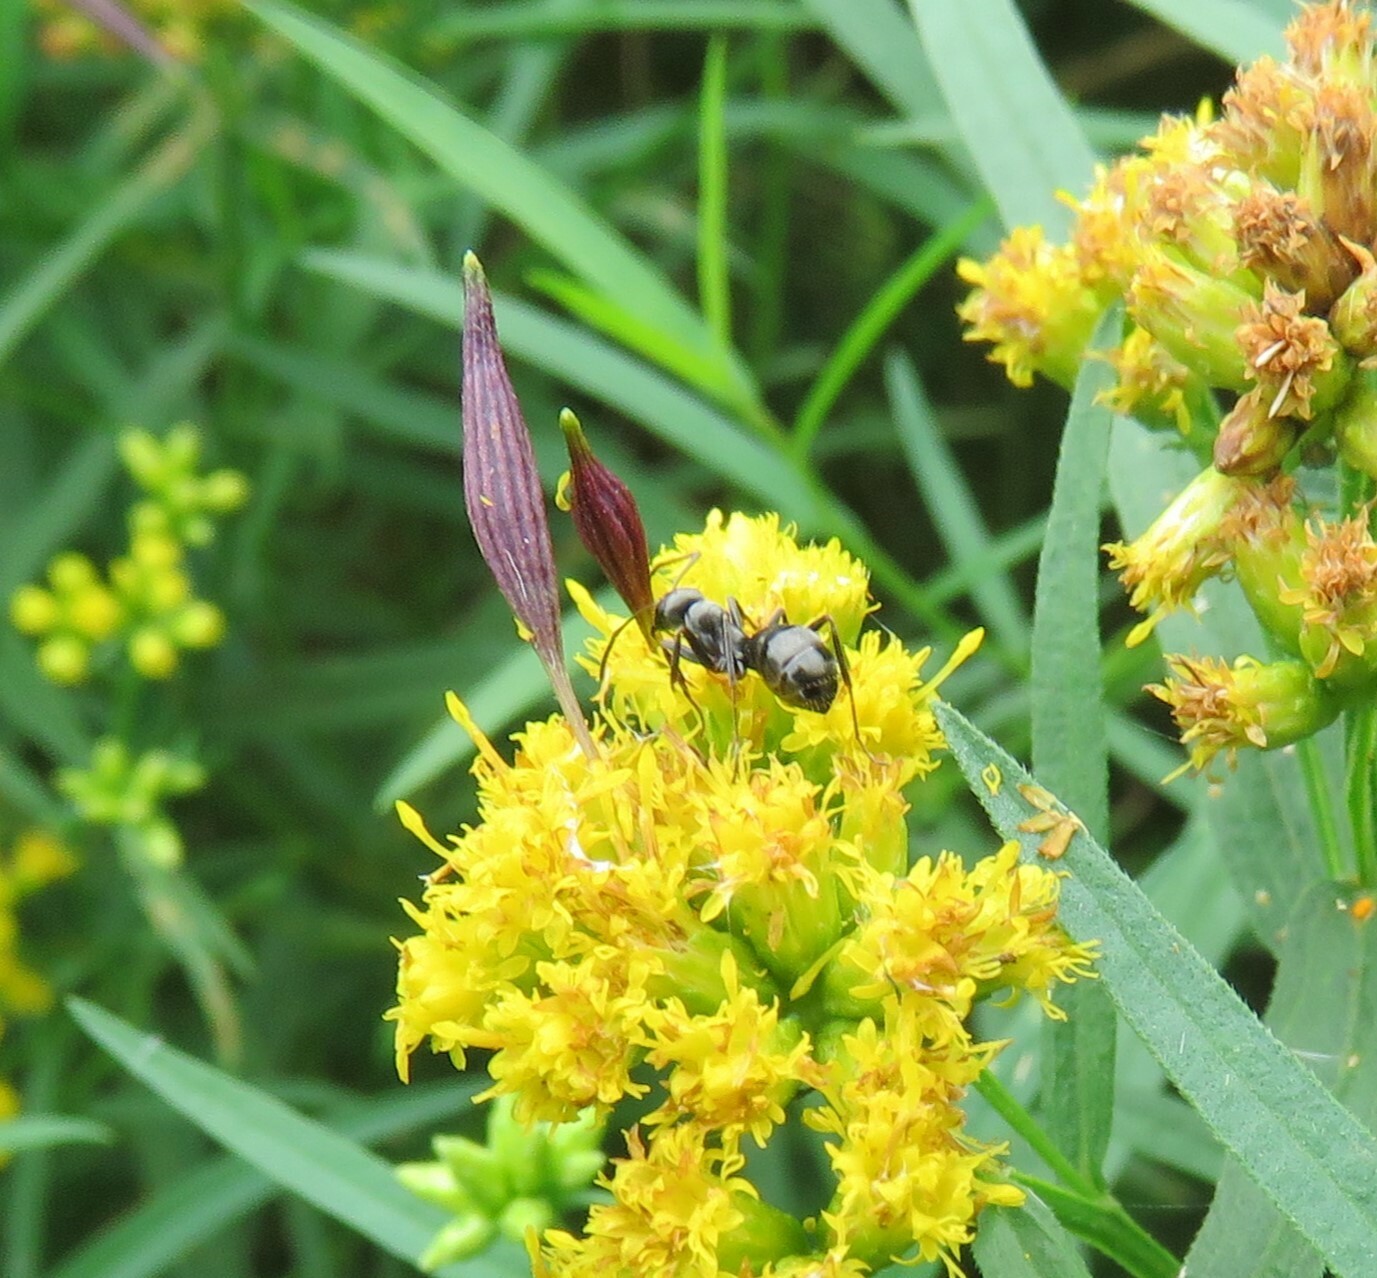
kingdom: Animalia
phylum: Arthropoda
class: Insecta
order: Diptera
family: Cecidomyiidae
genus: Rhopalomyia
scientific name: Rhopalomyia pedicellata
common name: Goldentop pedicellate gall midge
